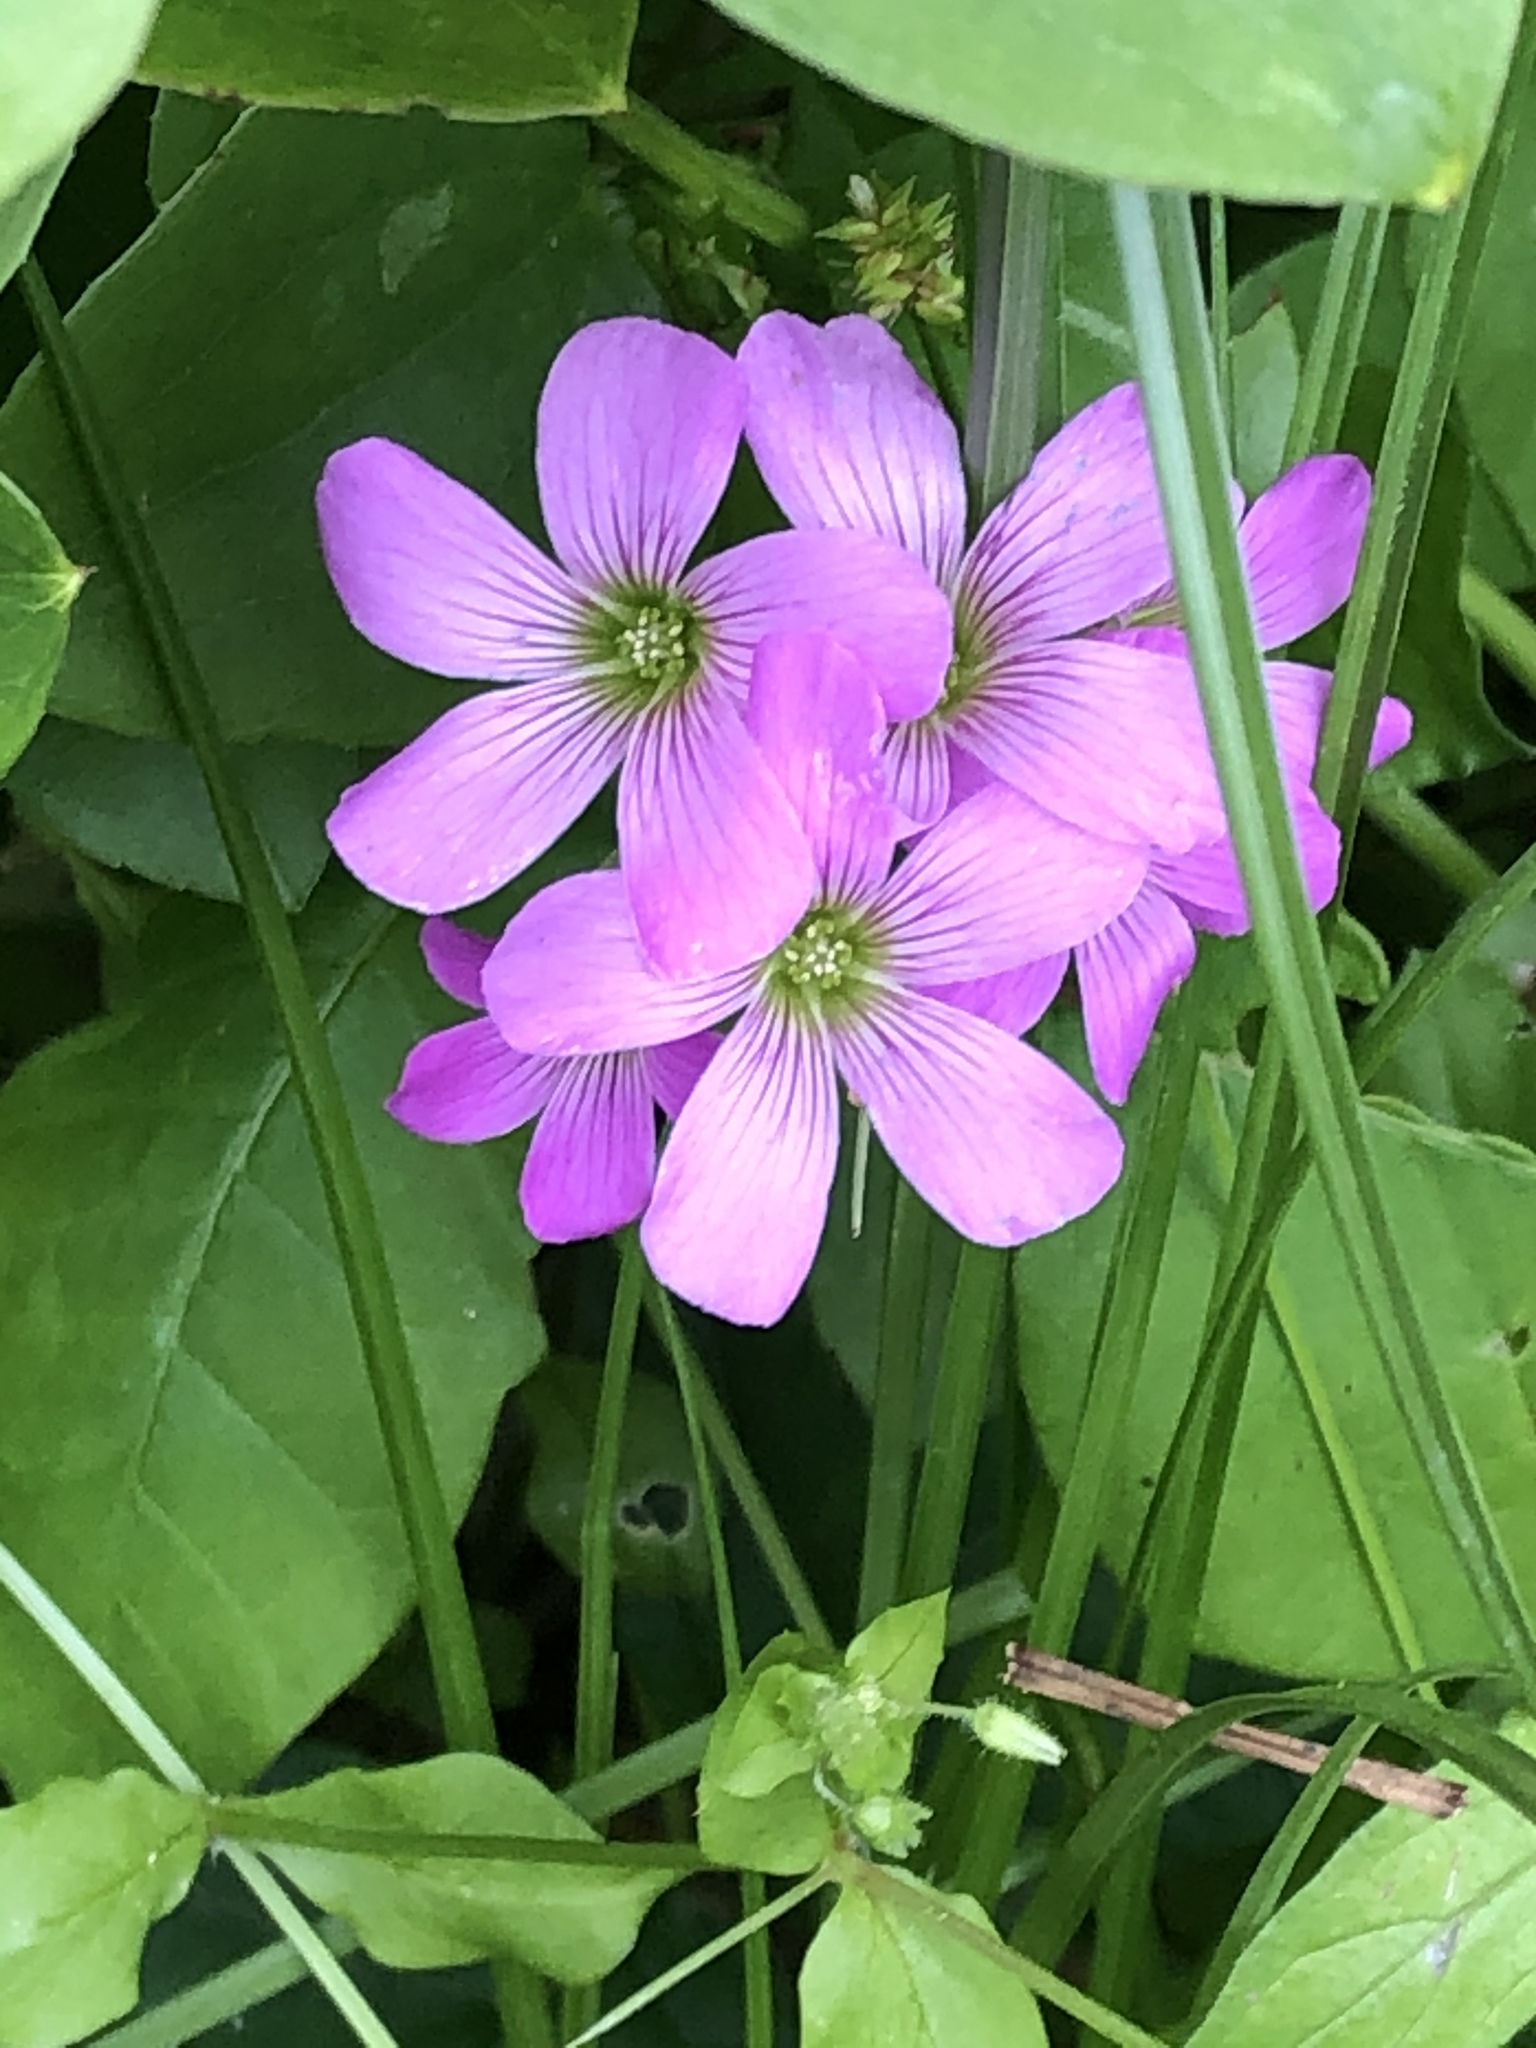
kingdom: Plantae
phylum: Tracheophyta
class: Magnoliopsida
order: Oxalidales
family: Oxalidaceae
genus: Oxalis
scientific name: Oxalis debilis
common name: Large-flowered pink-sorrel
